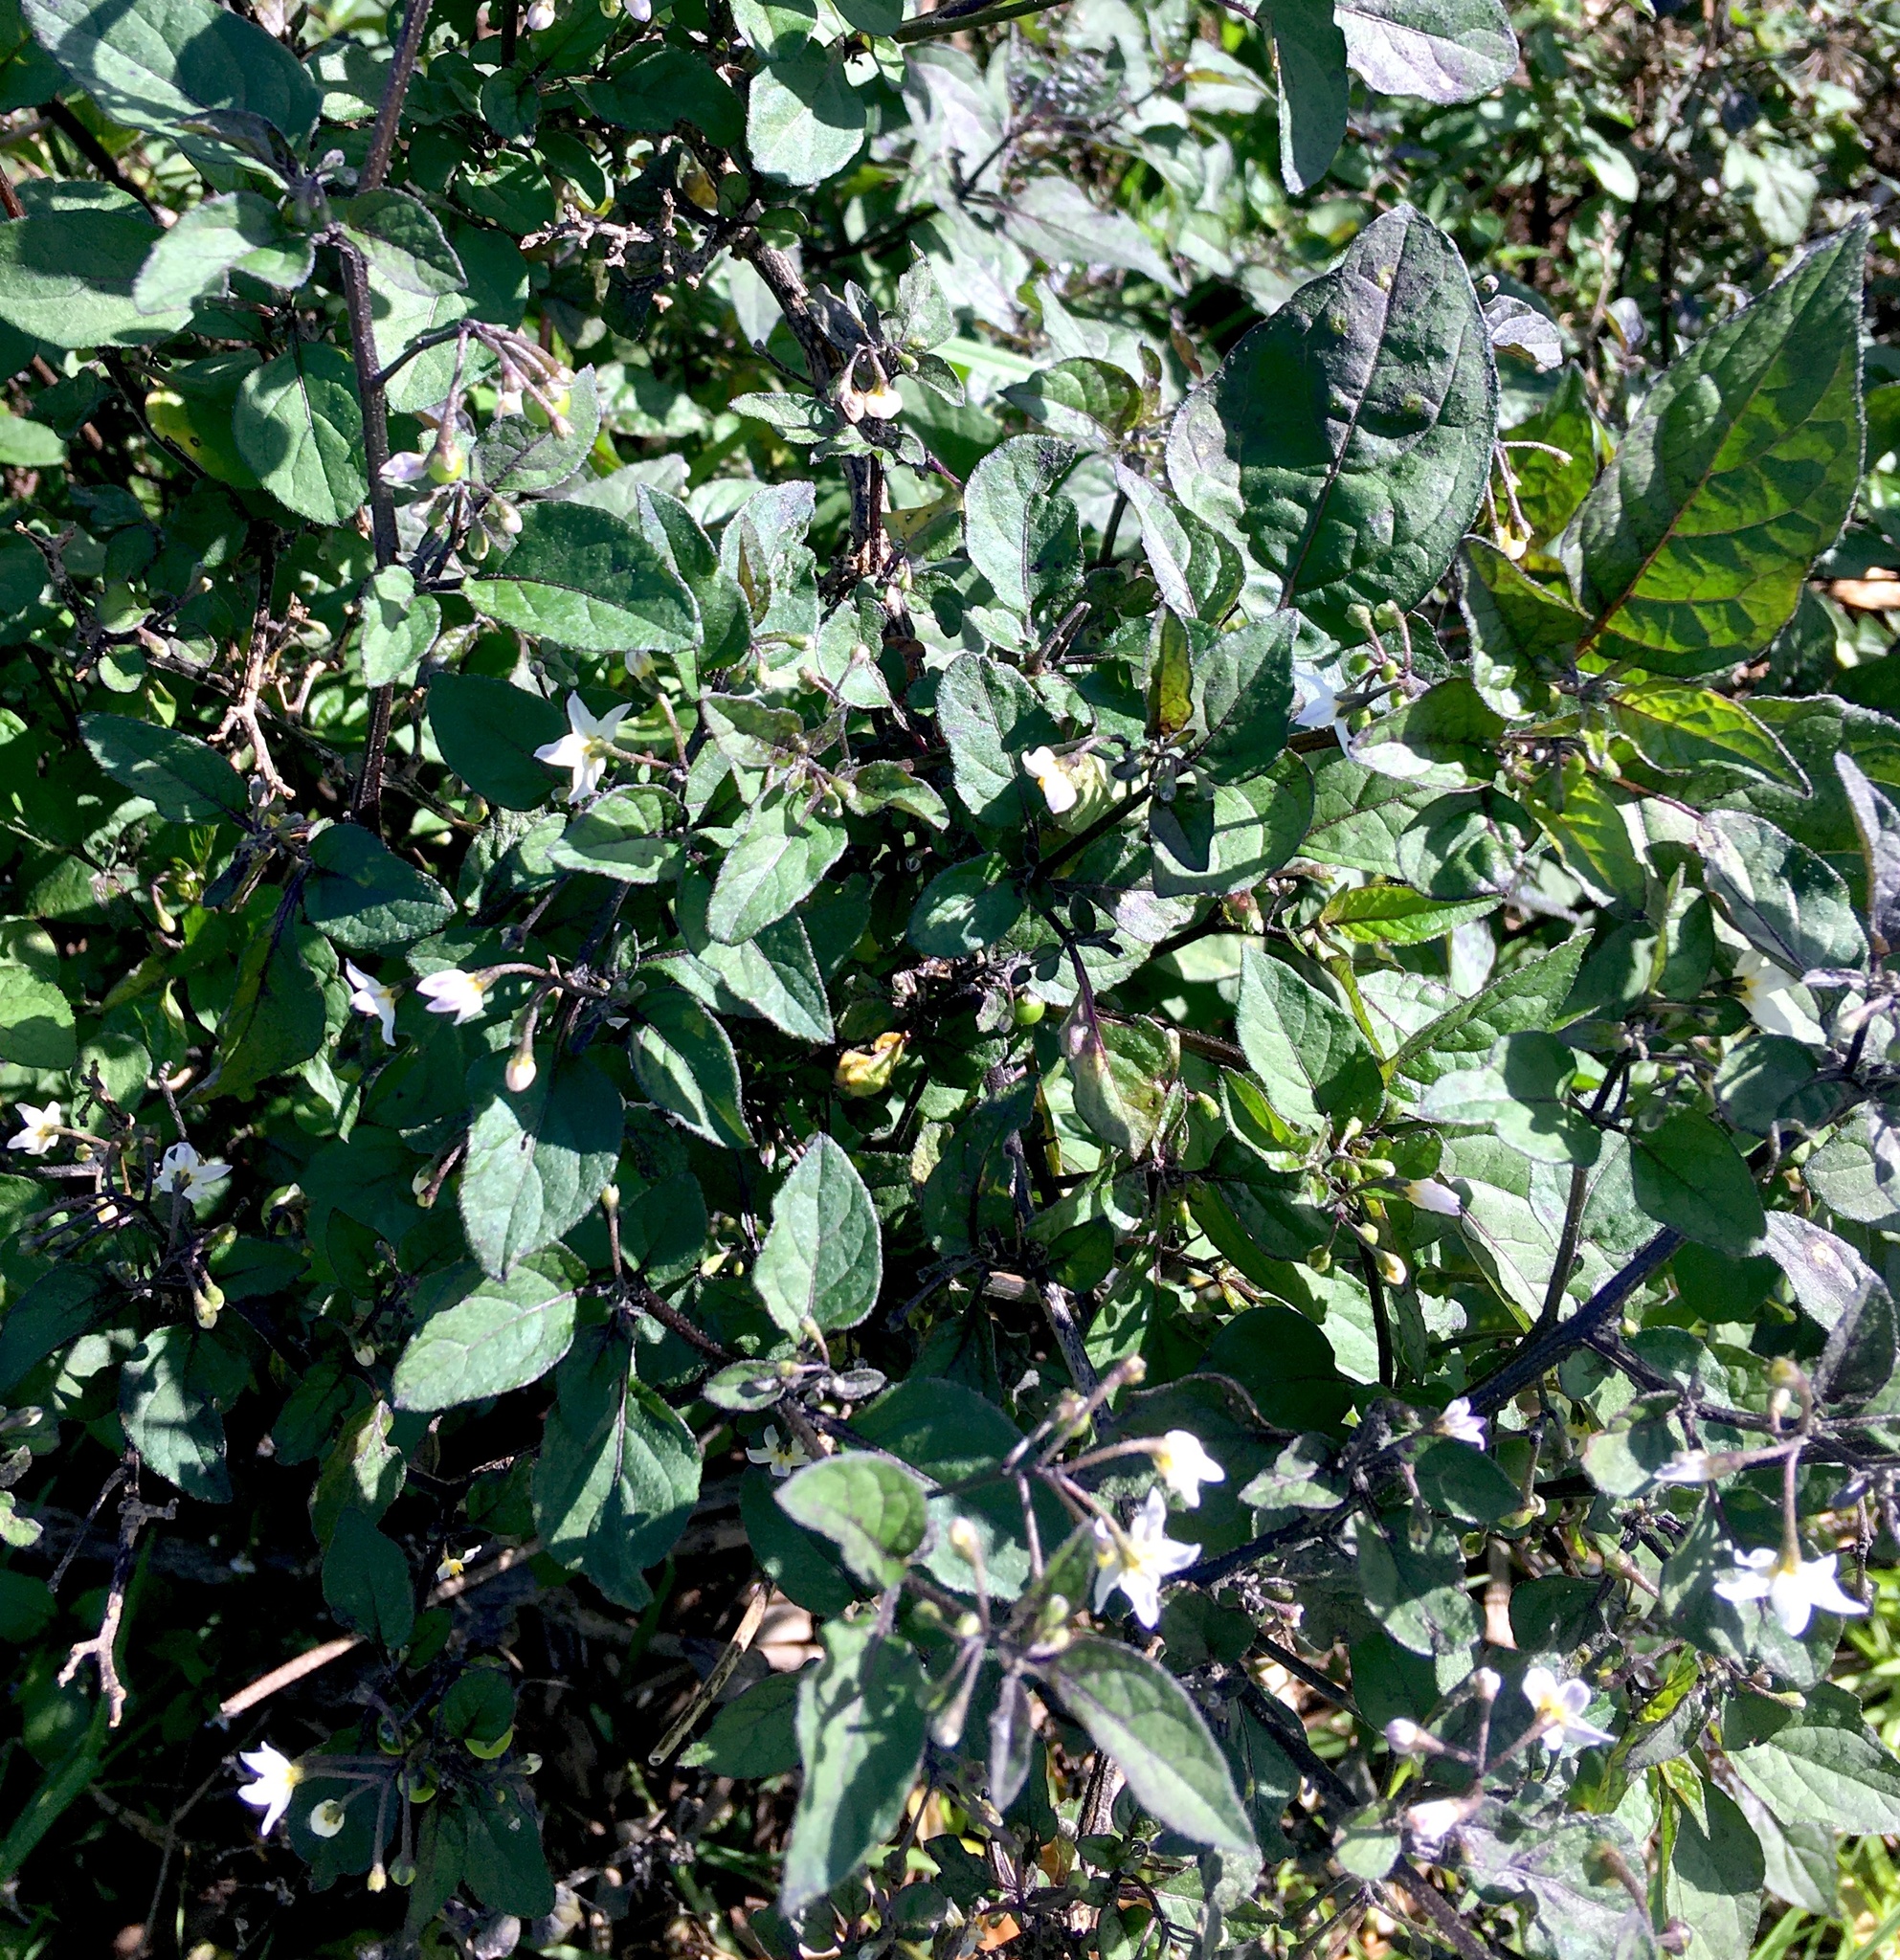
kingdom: Plantae
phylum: Tracheophyta
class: Magnoliopsida
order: Solanales
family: Solanaceae
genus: Solanum
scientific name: Solanum nigrum
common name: Black nightshade
